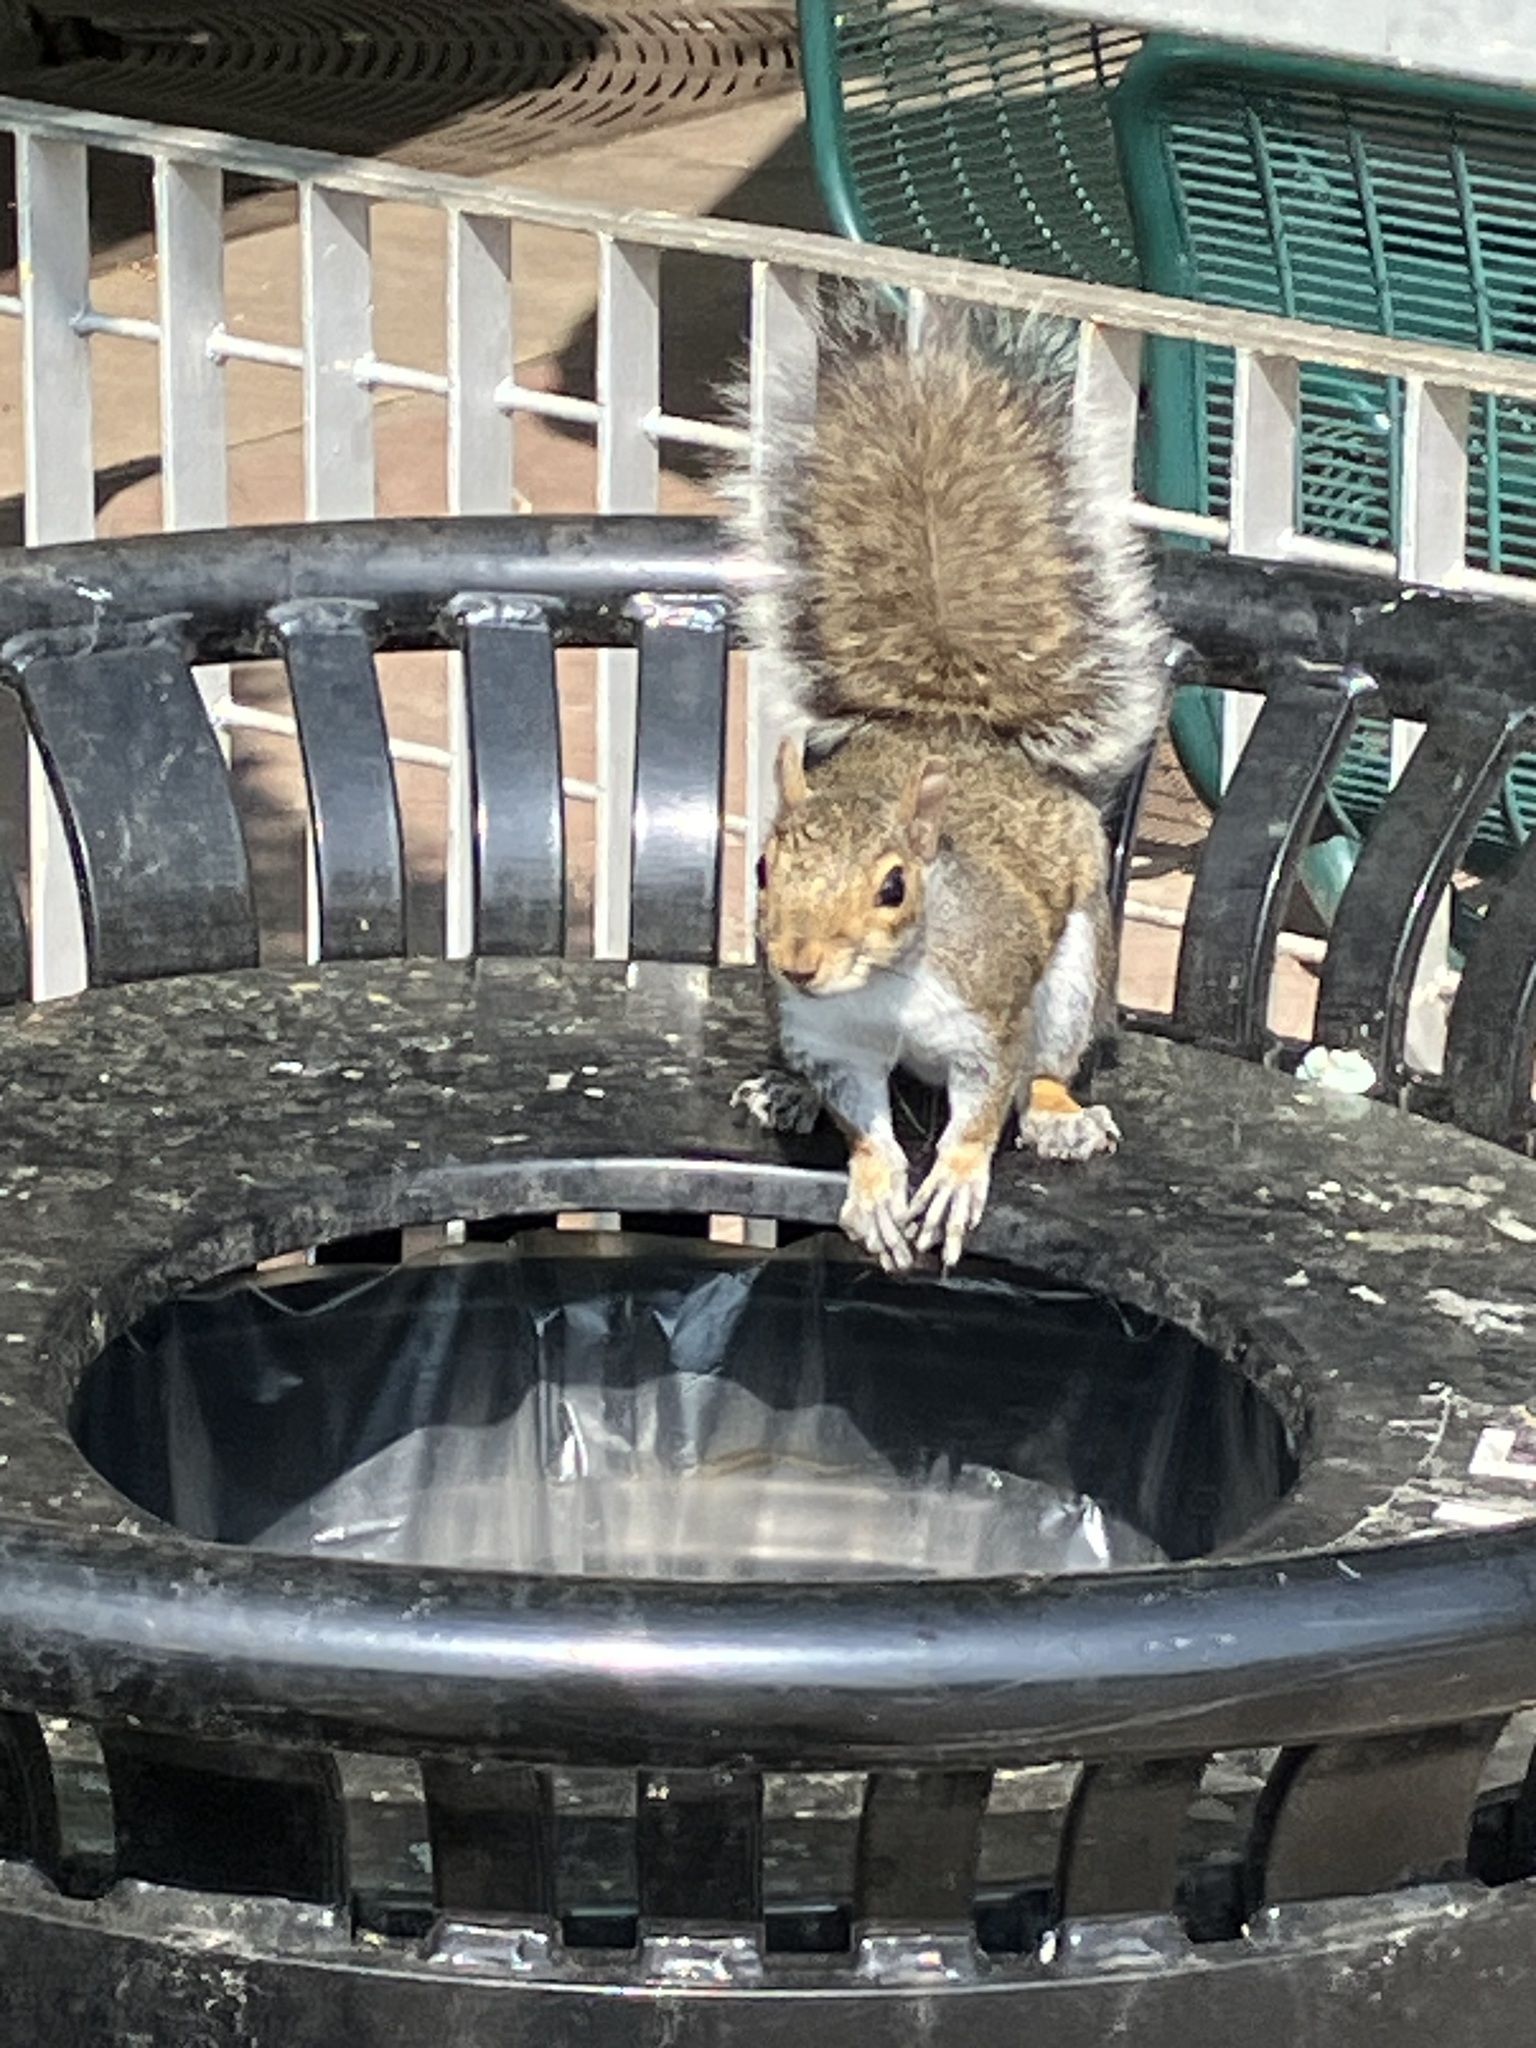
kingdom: Animalia
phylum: Chordata
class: Mammalia
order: Rodentia
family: Sciuridae
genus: Sciurus
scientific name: Sciurus carolinensis
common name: Eastern gray squirrel
